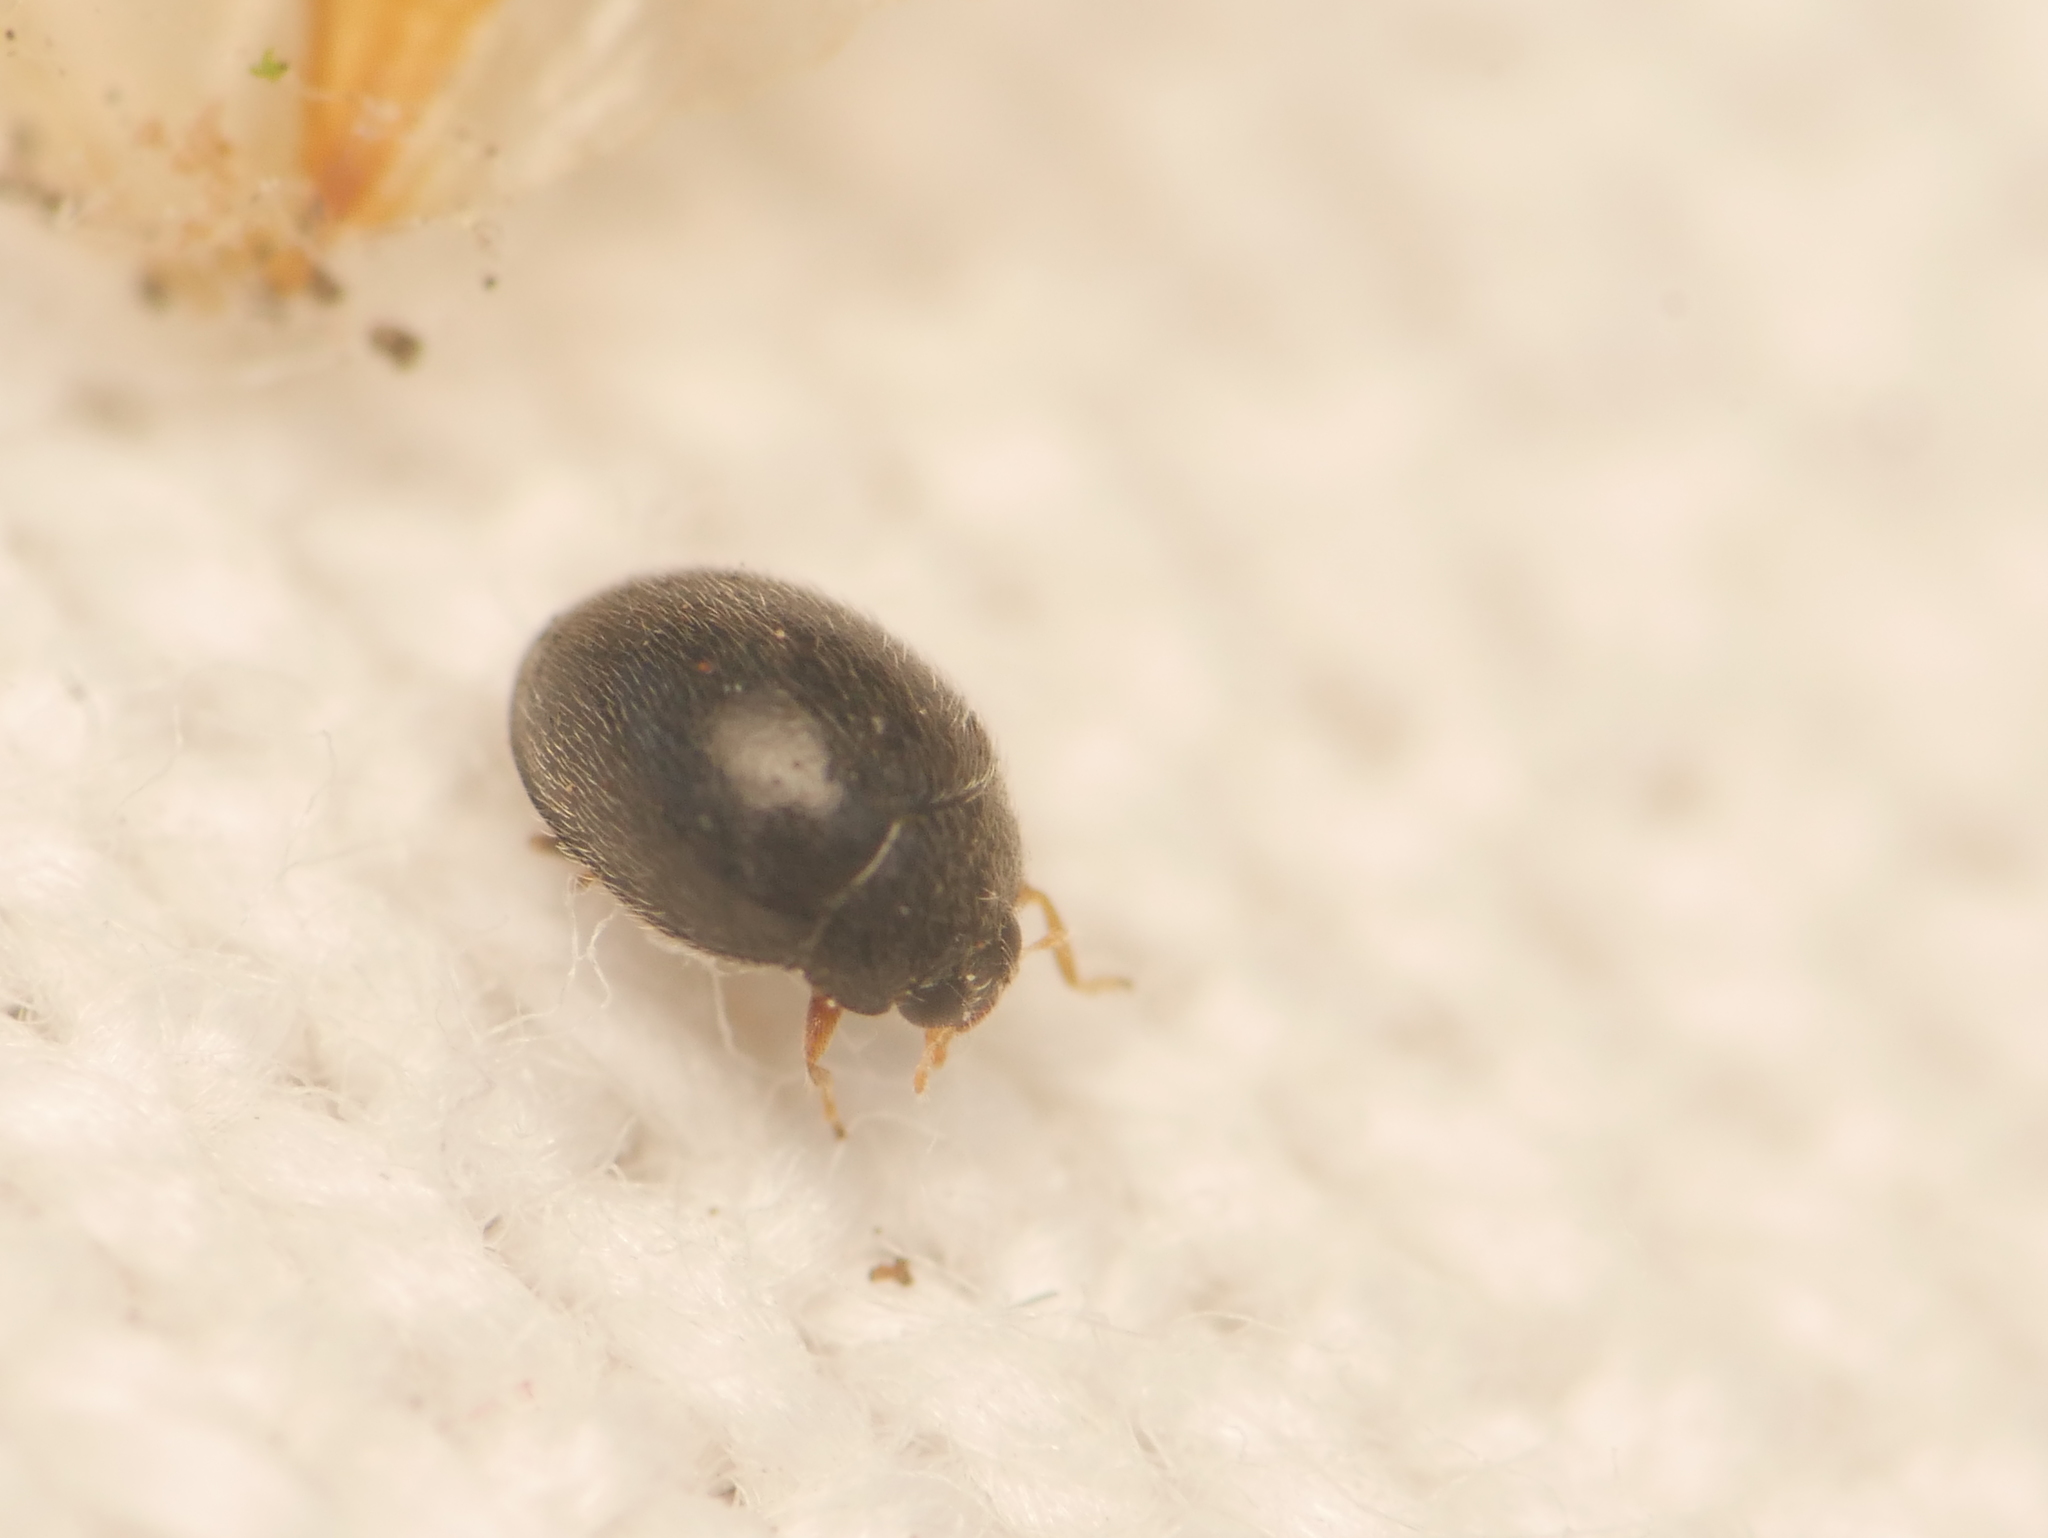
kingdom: Animalia
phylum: Arthropoda
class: Insecta
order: Coleoptera
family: Coccinellidae
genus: Stethorus
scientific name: Stethorus pusillus
